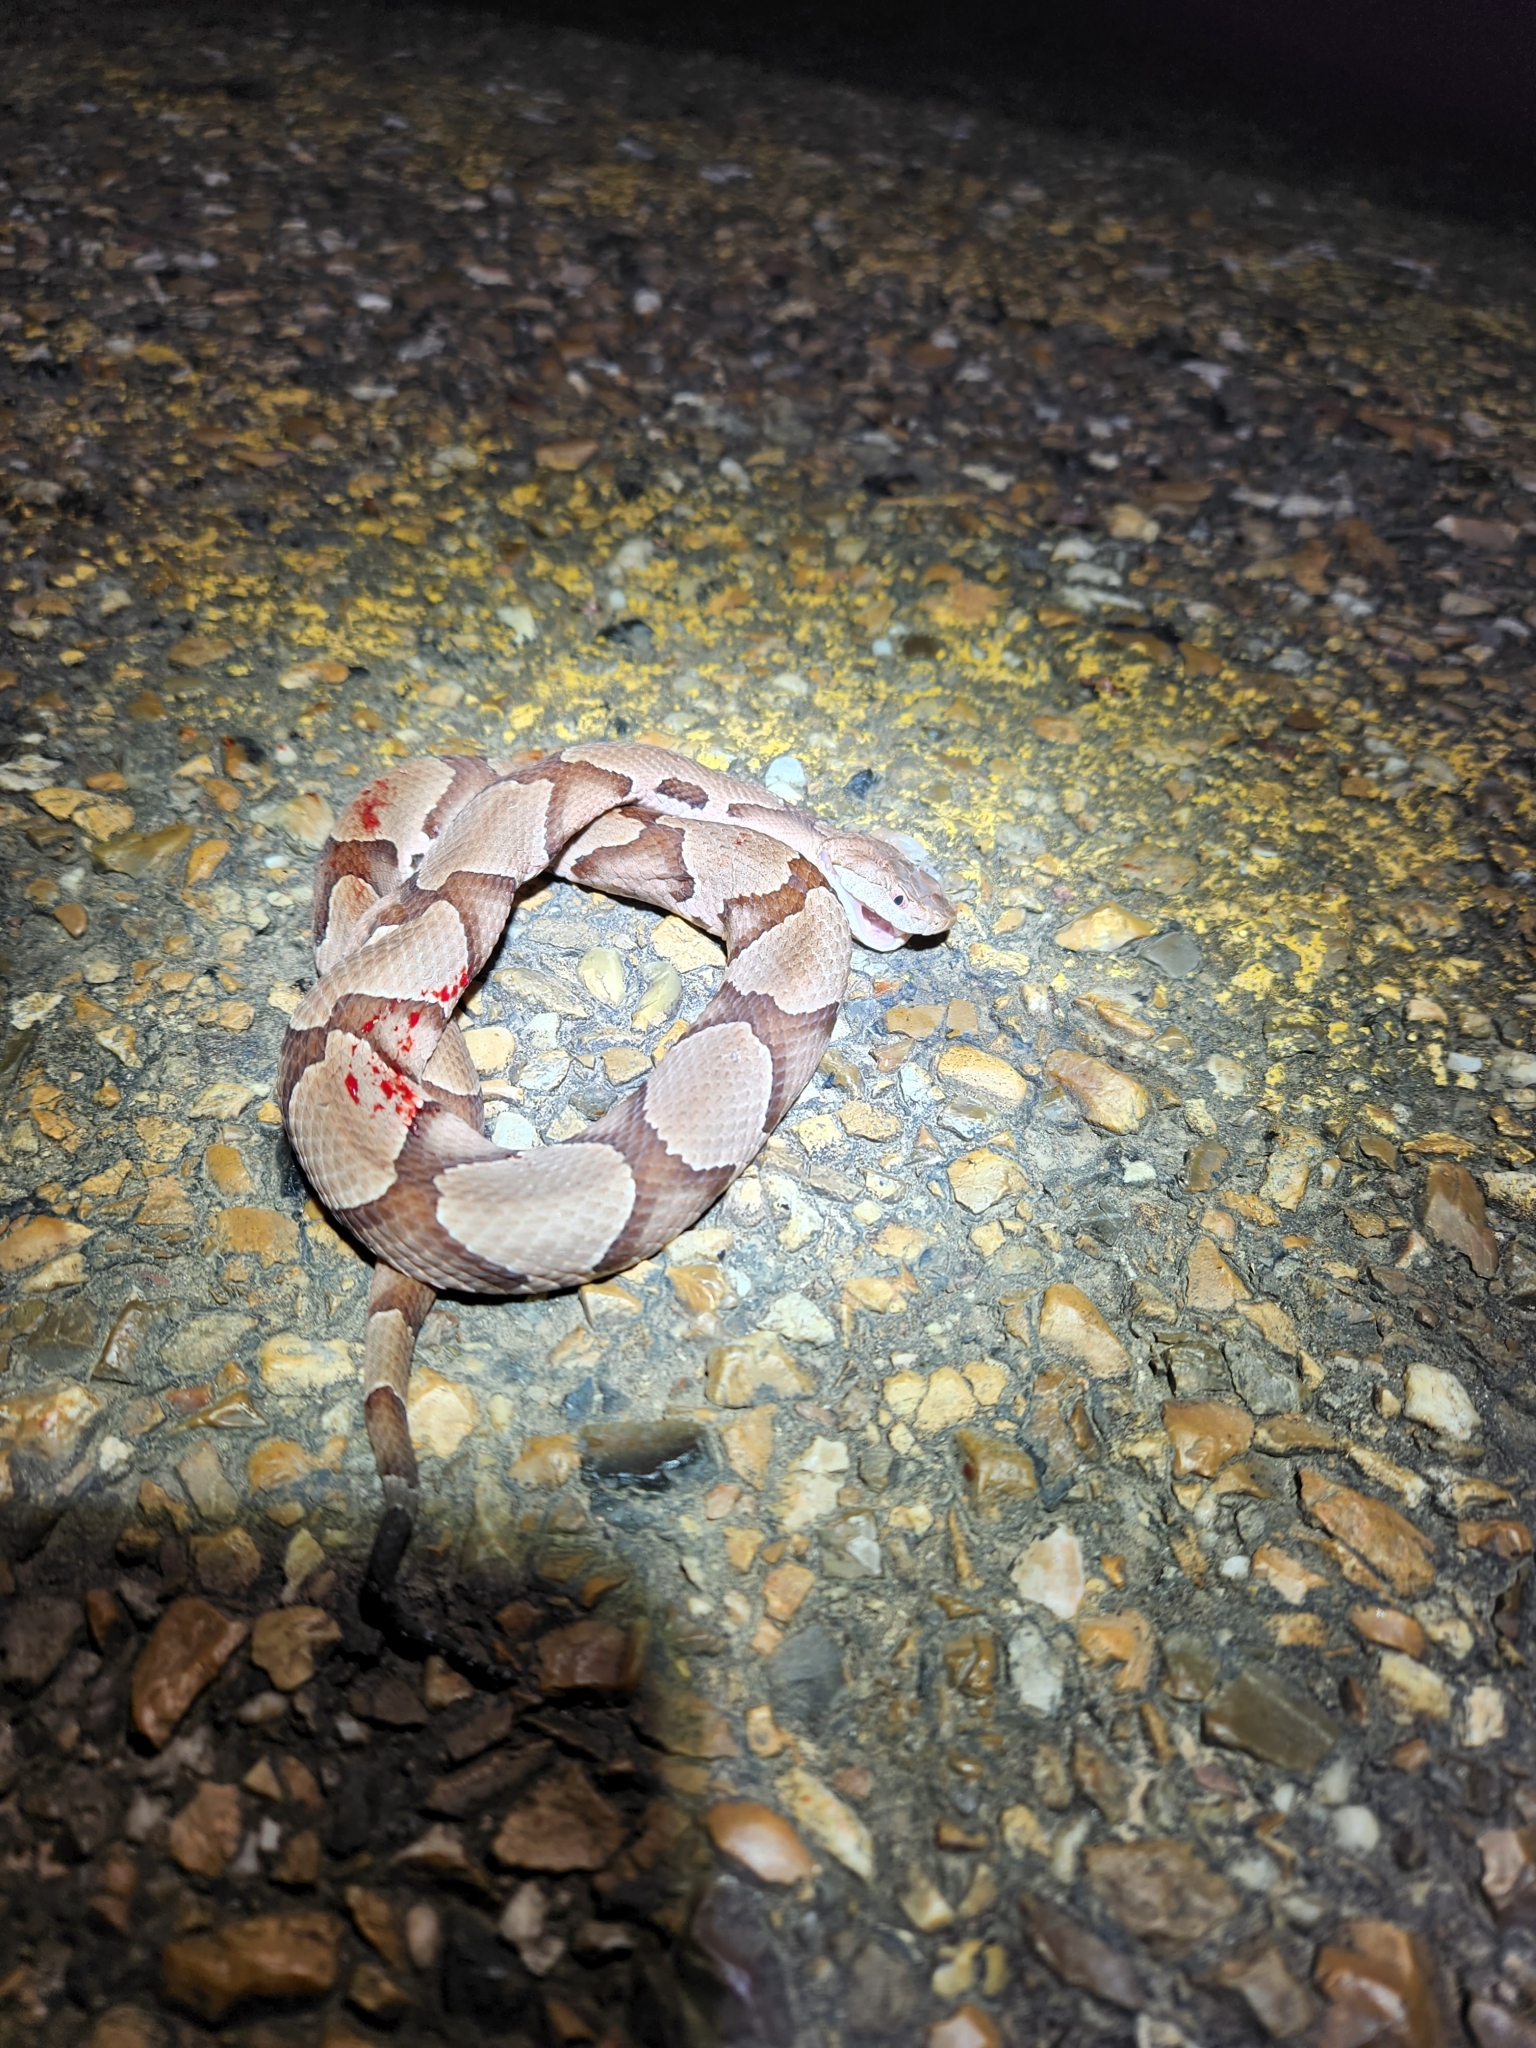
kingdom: Animalia
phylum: Chordata
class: Squamata
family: Viperidae
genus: Agkistrodon
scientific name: Agkistrodon contortrix
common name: Northern copperhead
